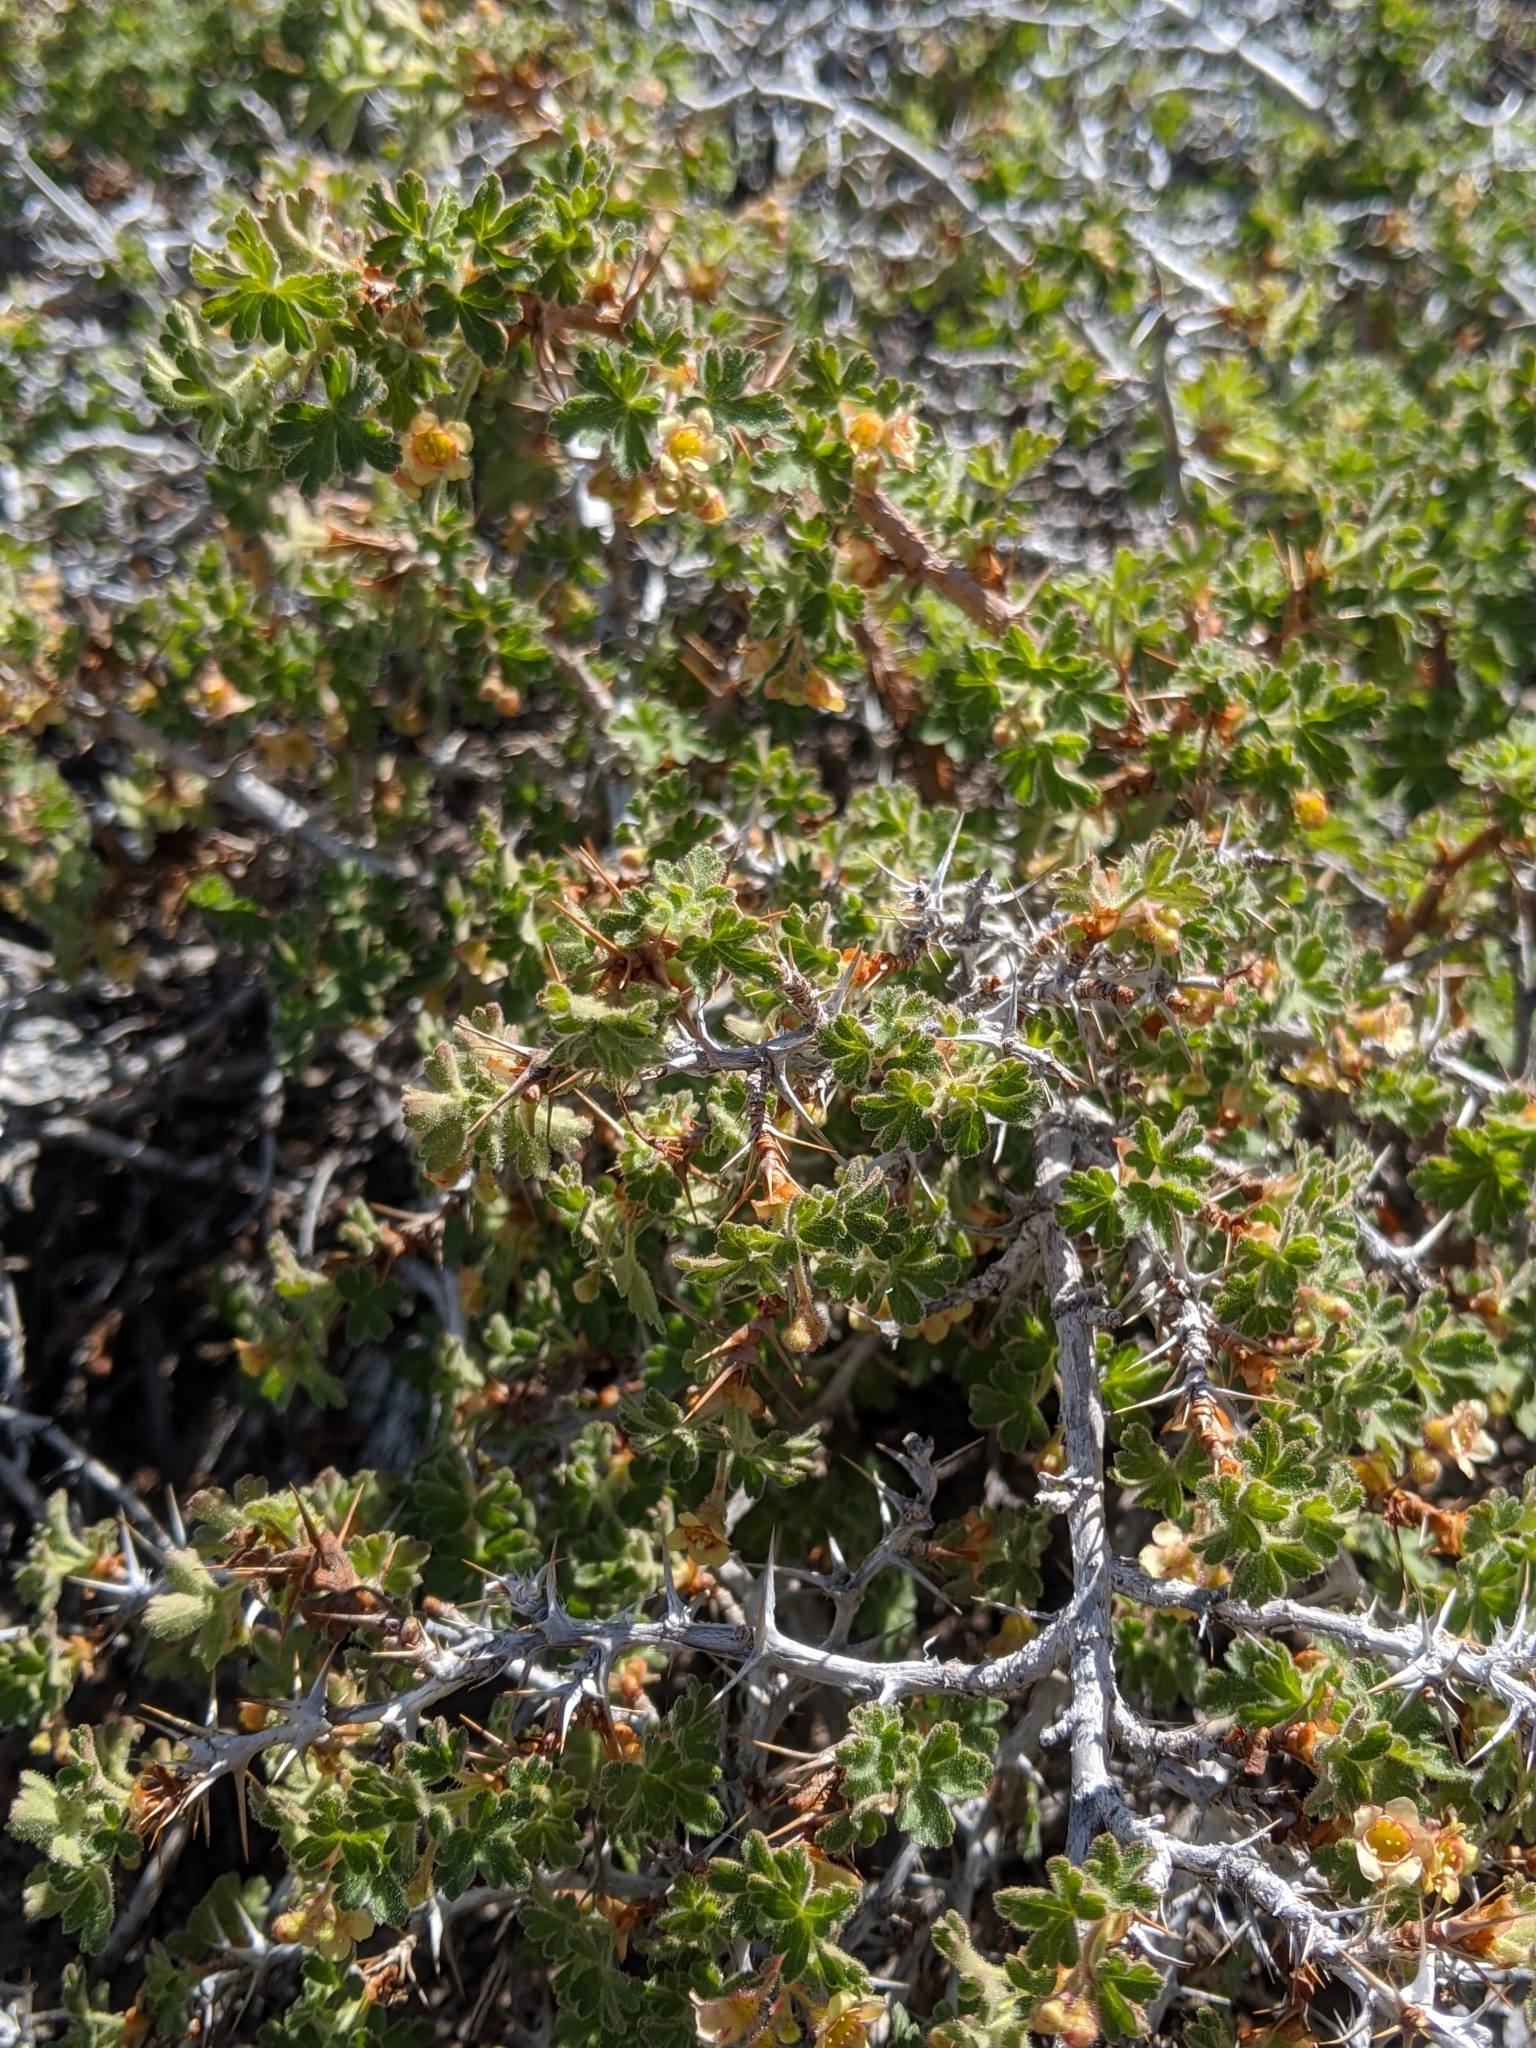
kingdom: Plantae
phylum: Tracheophyta
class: Magnoliopsida
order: Saxifragales
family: Grossulariaceae
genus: Ribes
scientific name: Ribes montigenum
